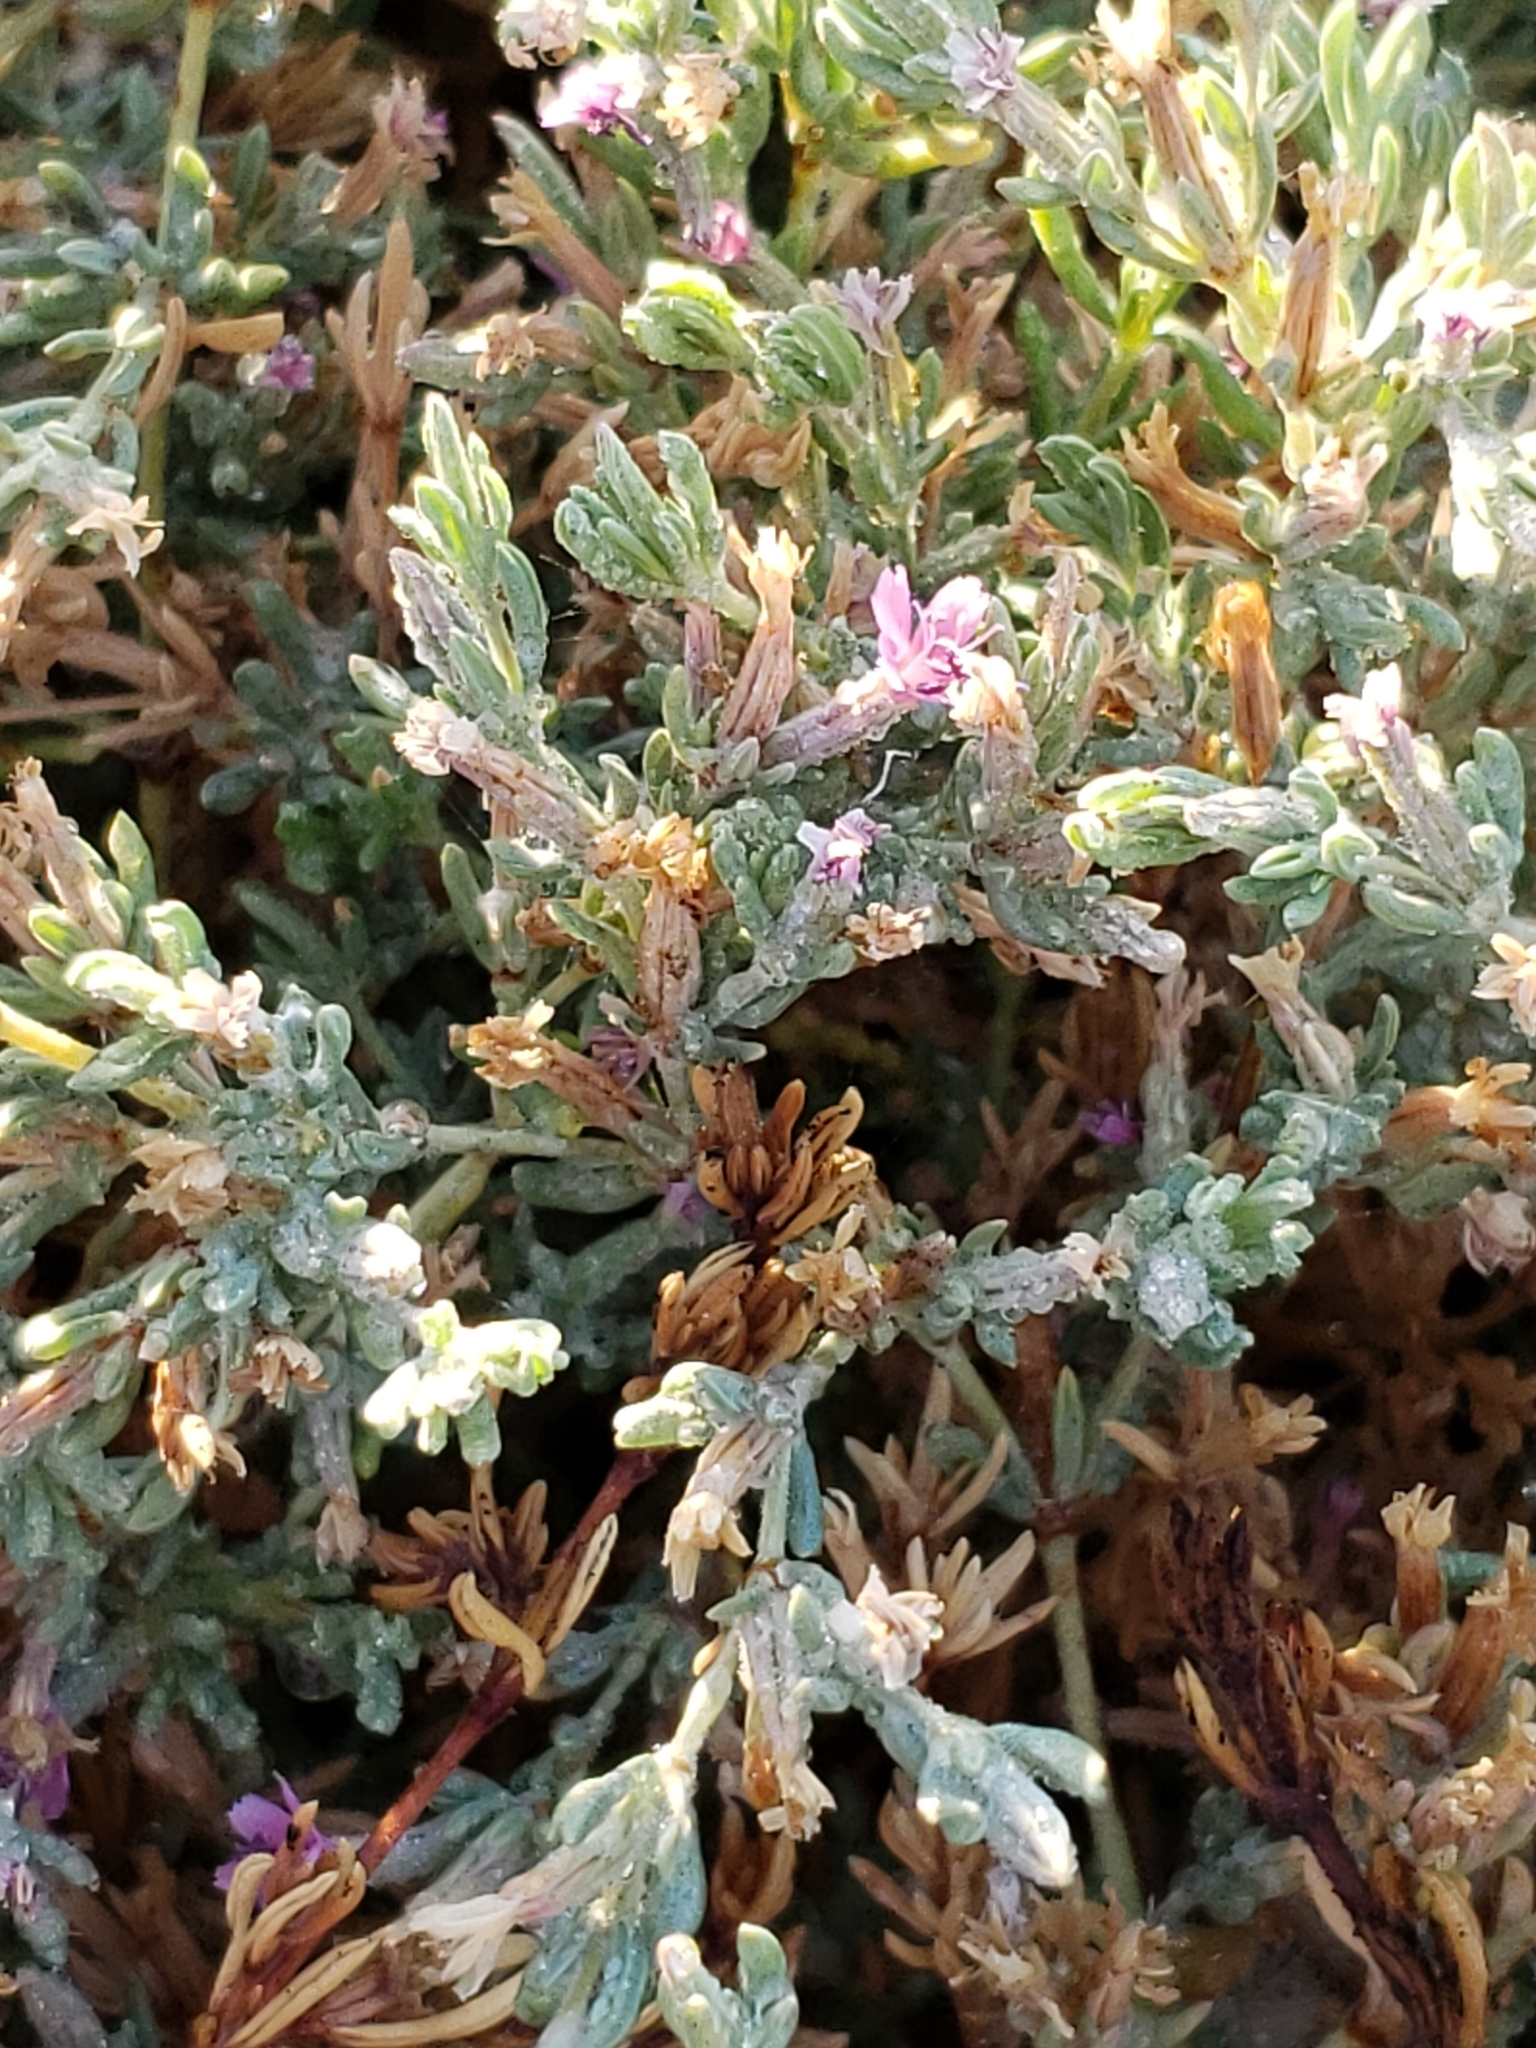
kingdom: Plantae
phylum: Tracheophyta
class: Magnoliopsida
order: Caryophyllales
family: Frankeniaceae
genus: Frankenia
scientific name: Frankenia salina
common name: Alkali seaheath
